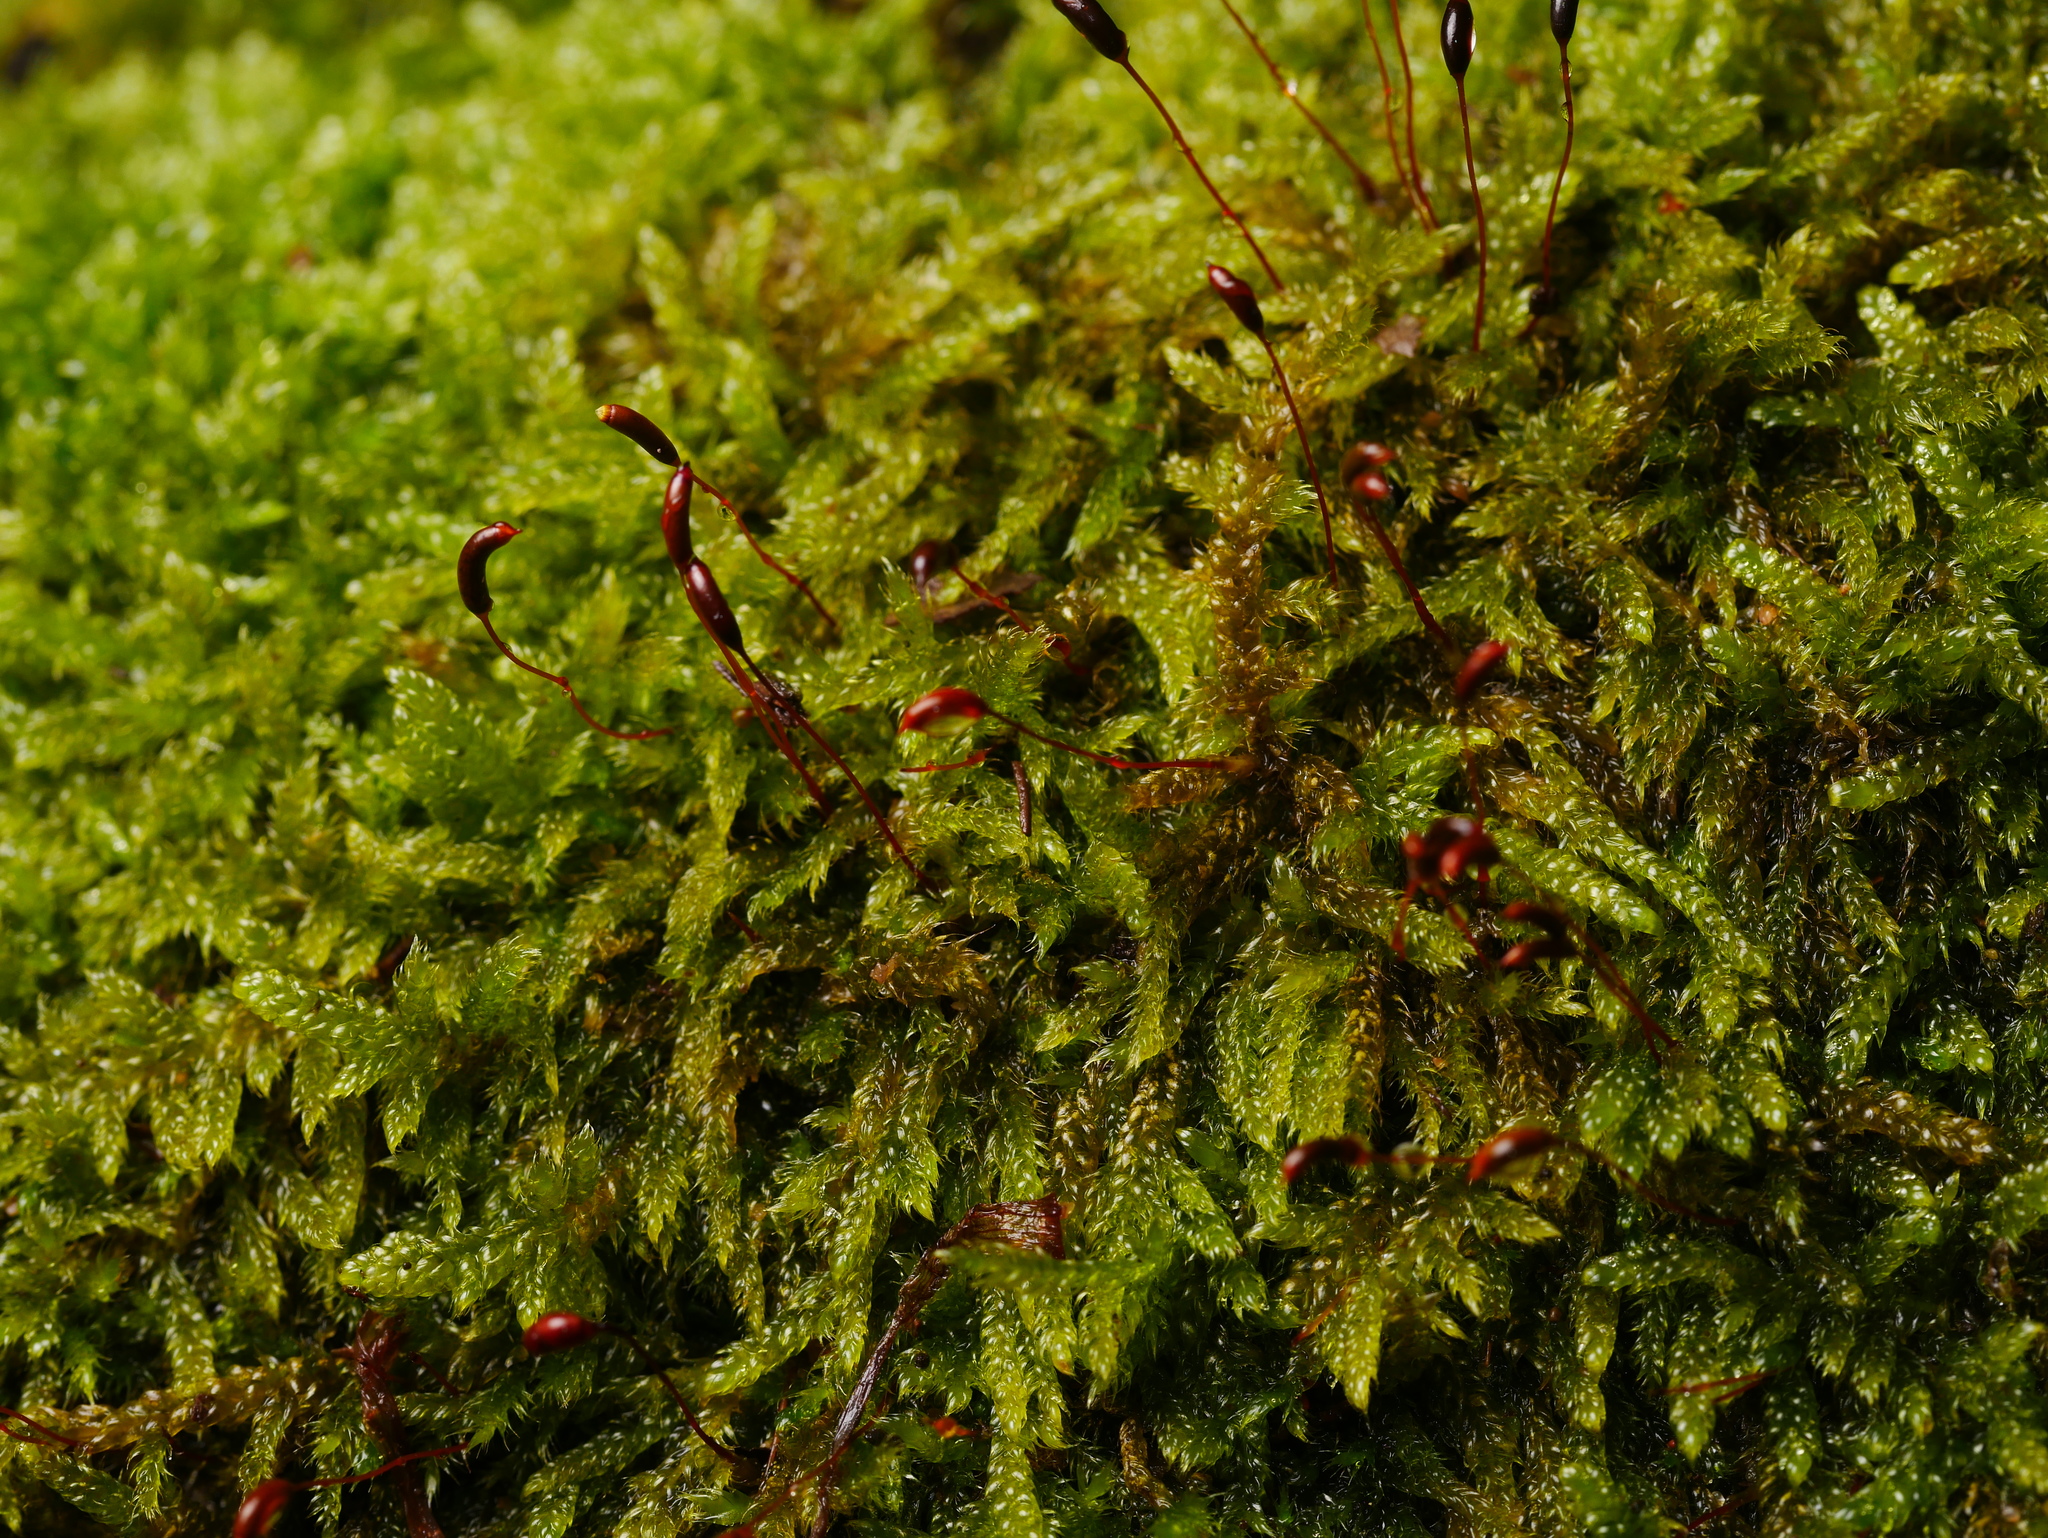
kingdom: Plantae
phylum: Bryophyta
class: Bryopsida
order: Hypnales
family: Hypnaceae
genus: Hypnum
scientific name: Hypnum cupressiforme
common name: Cypress-leaved plait-moss
